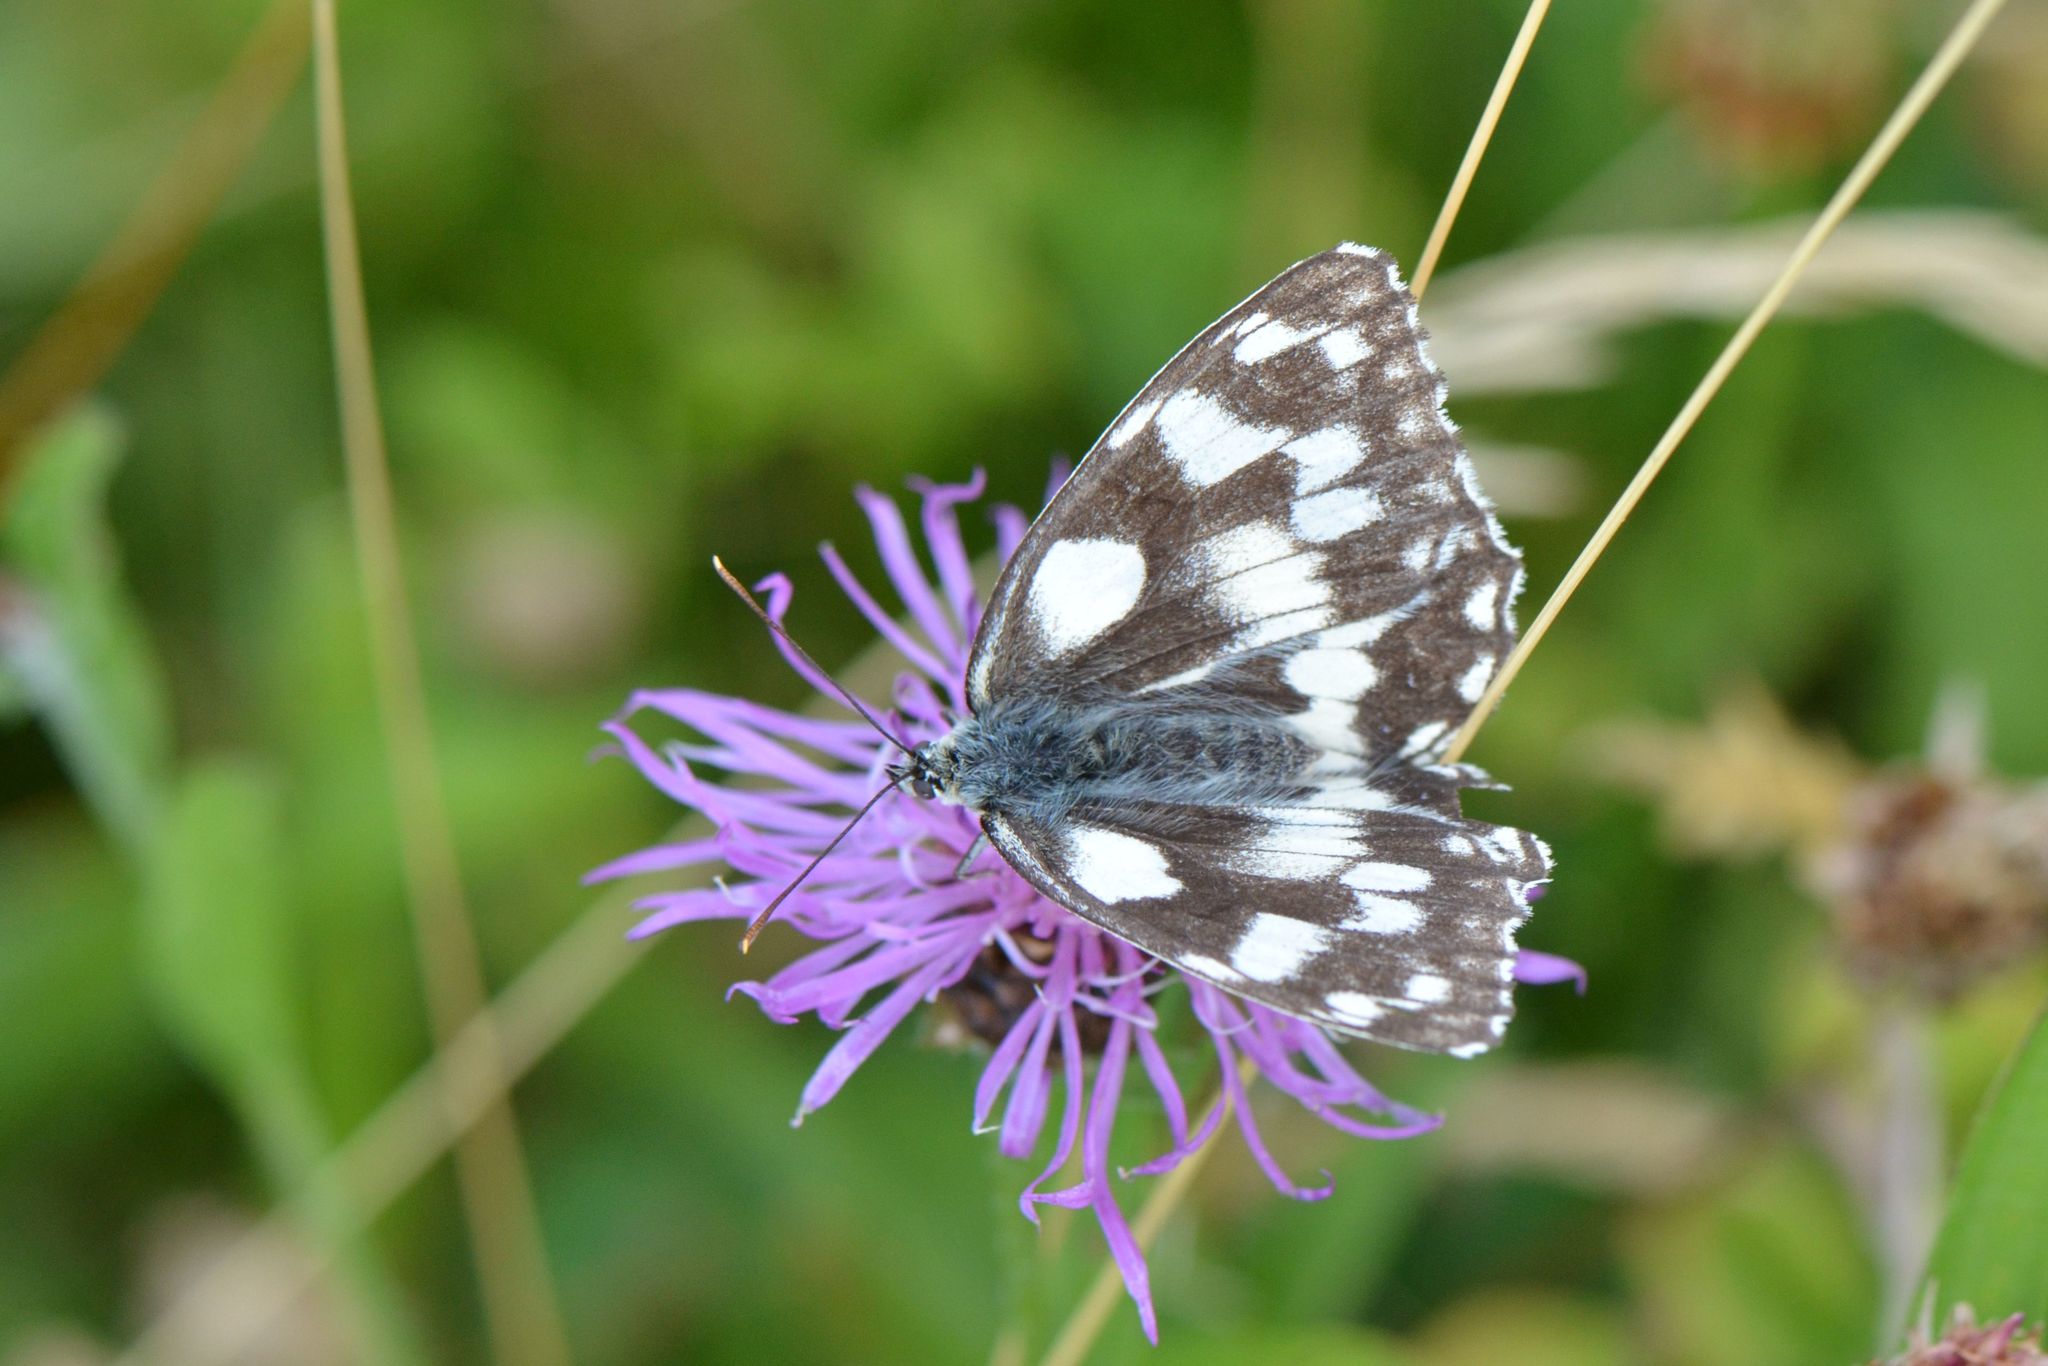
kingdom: Animalia
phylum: Arthropoda
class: Insecta
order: Lepidoptera
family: Nymphalidae
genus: Melanargia
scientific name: Melanargia galathea
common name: Marbled white
